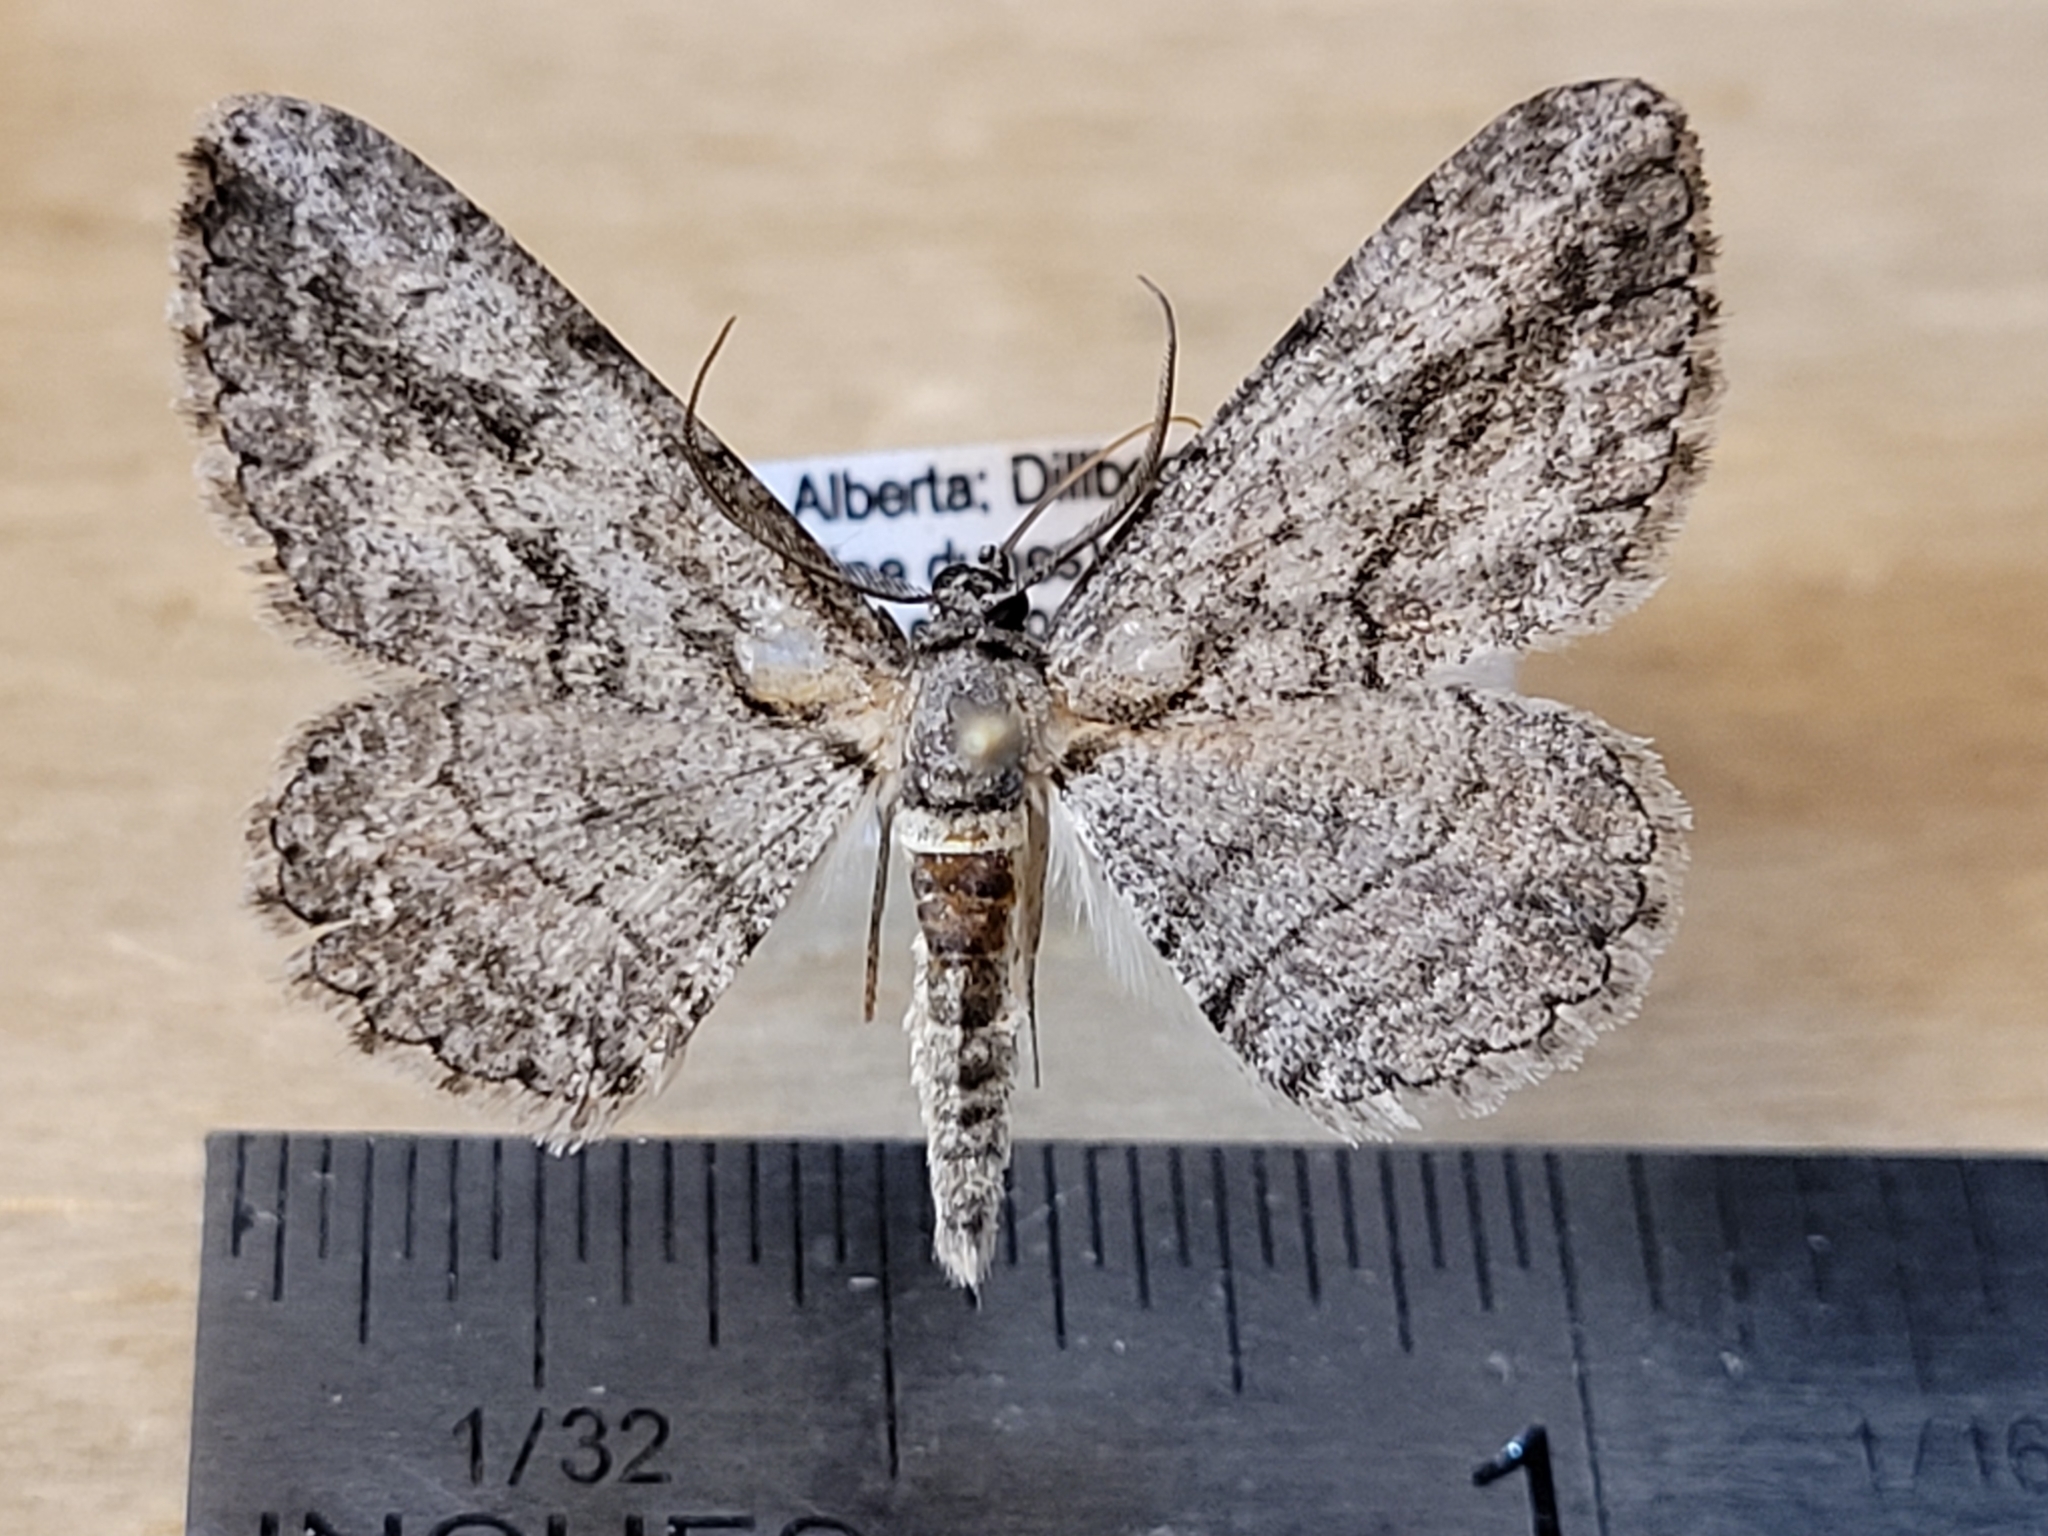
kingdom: Animalia
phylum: Arthropoda
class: Insecta
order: Lepidoptera
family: Geometridae
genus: Anavitrinella
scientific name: Anavitrinella pampinaria
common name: Common gray
